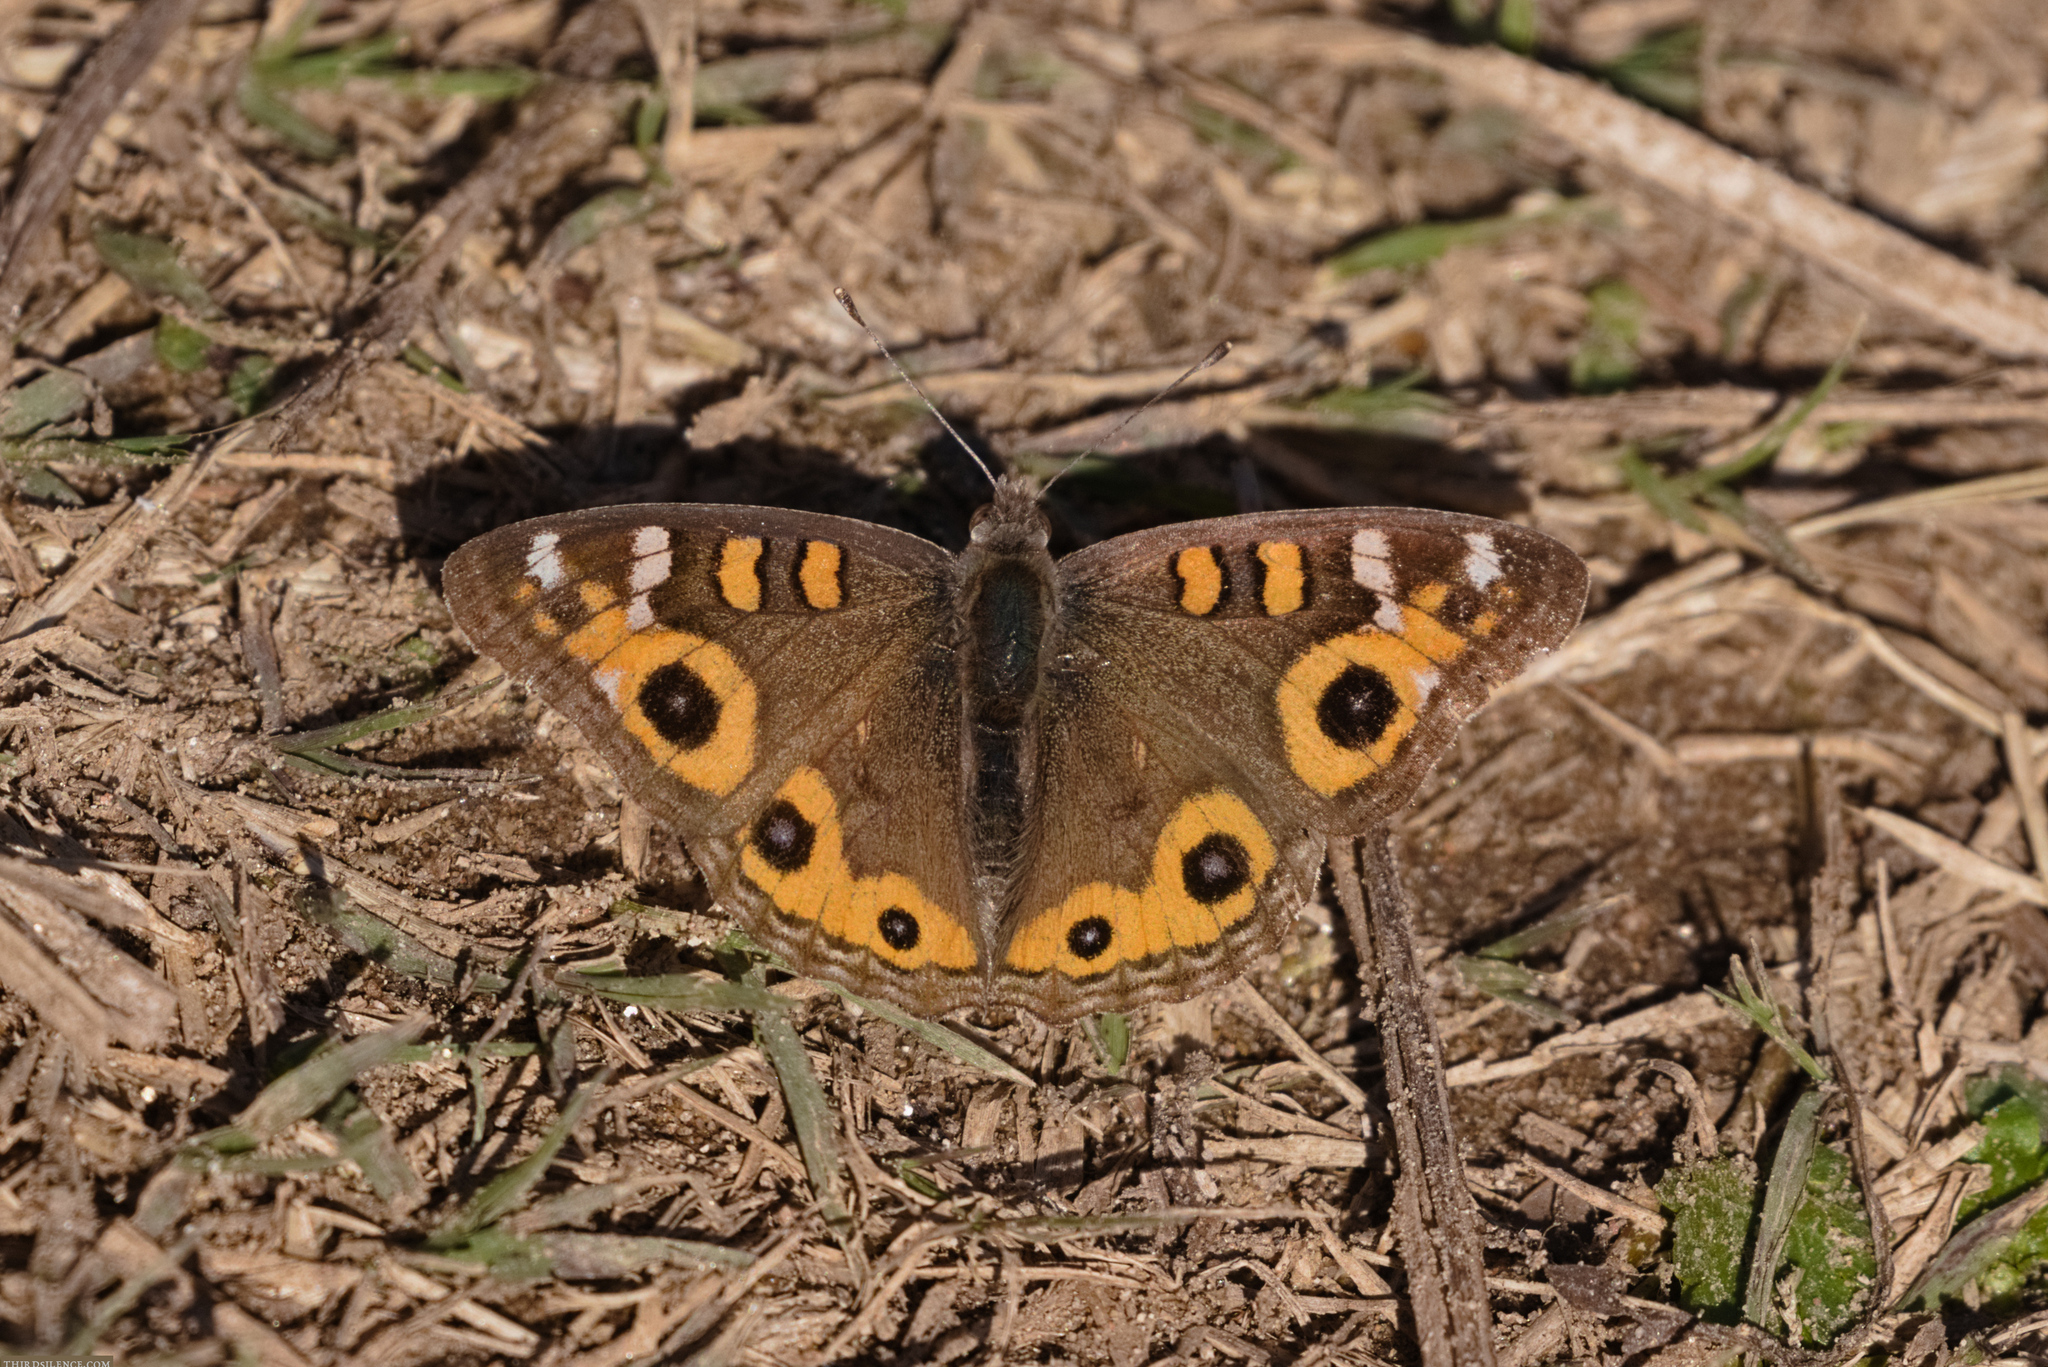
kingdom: Animalia
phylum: Arthropoda
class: Insecta
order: Lepidoptera
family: Nymphalidae
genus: Junonia
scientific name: Junonia villida
